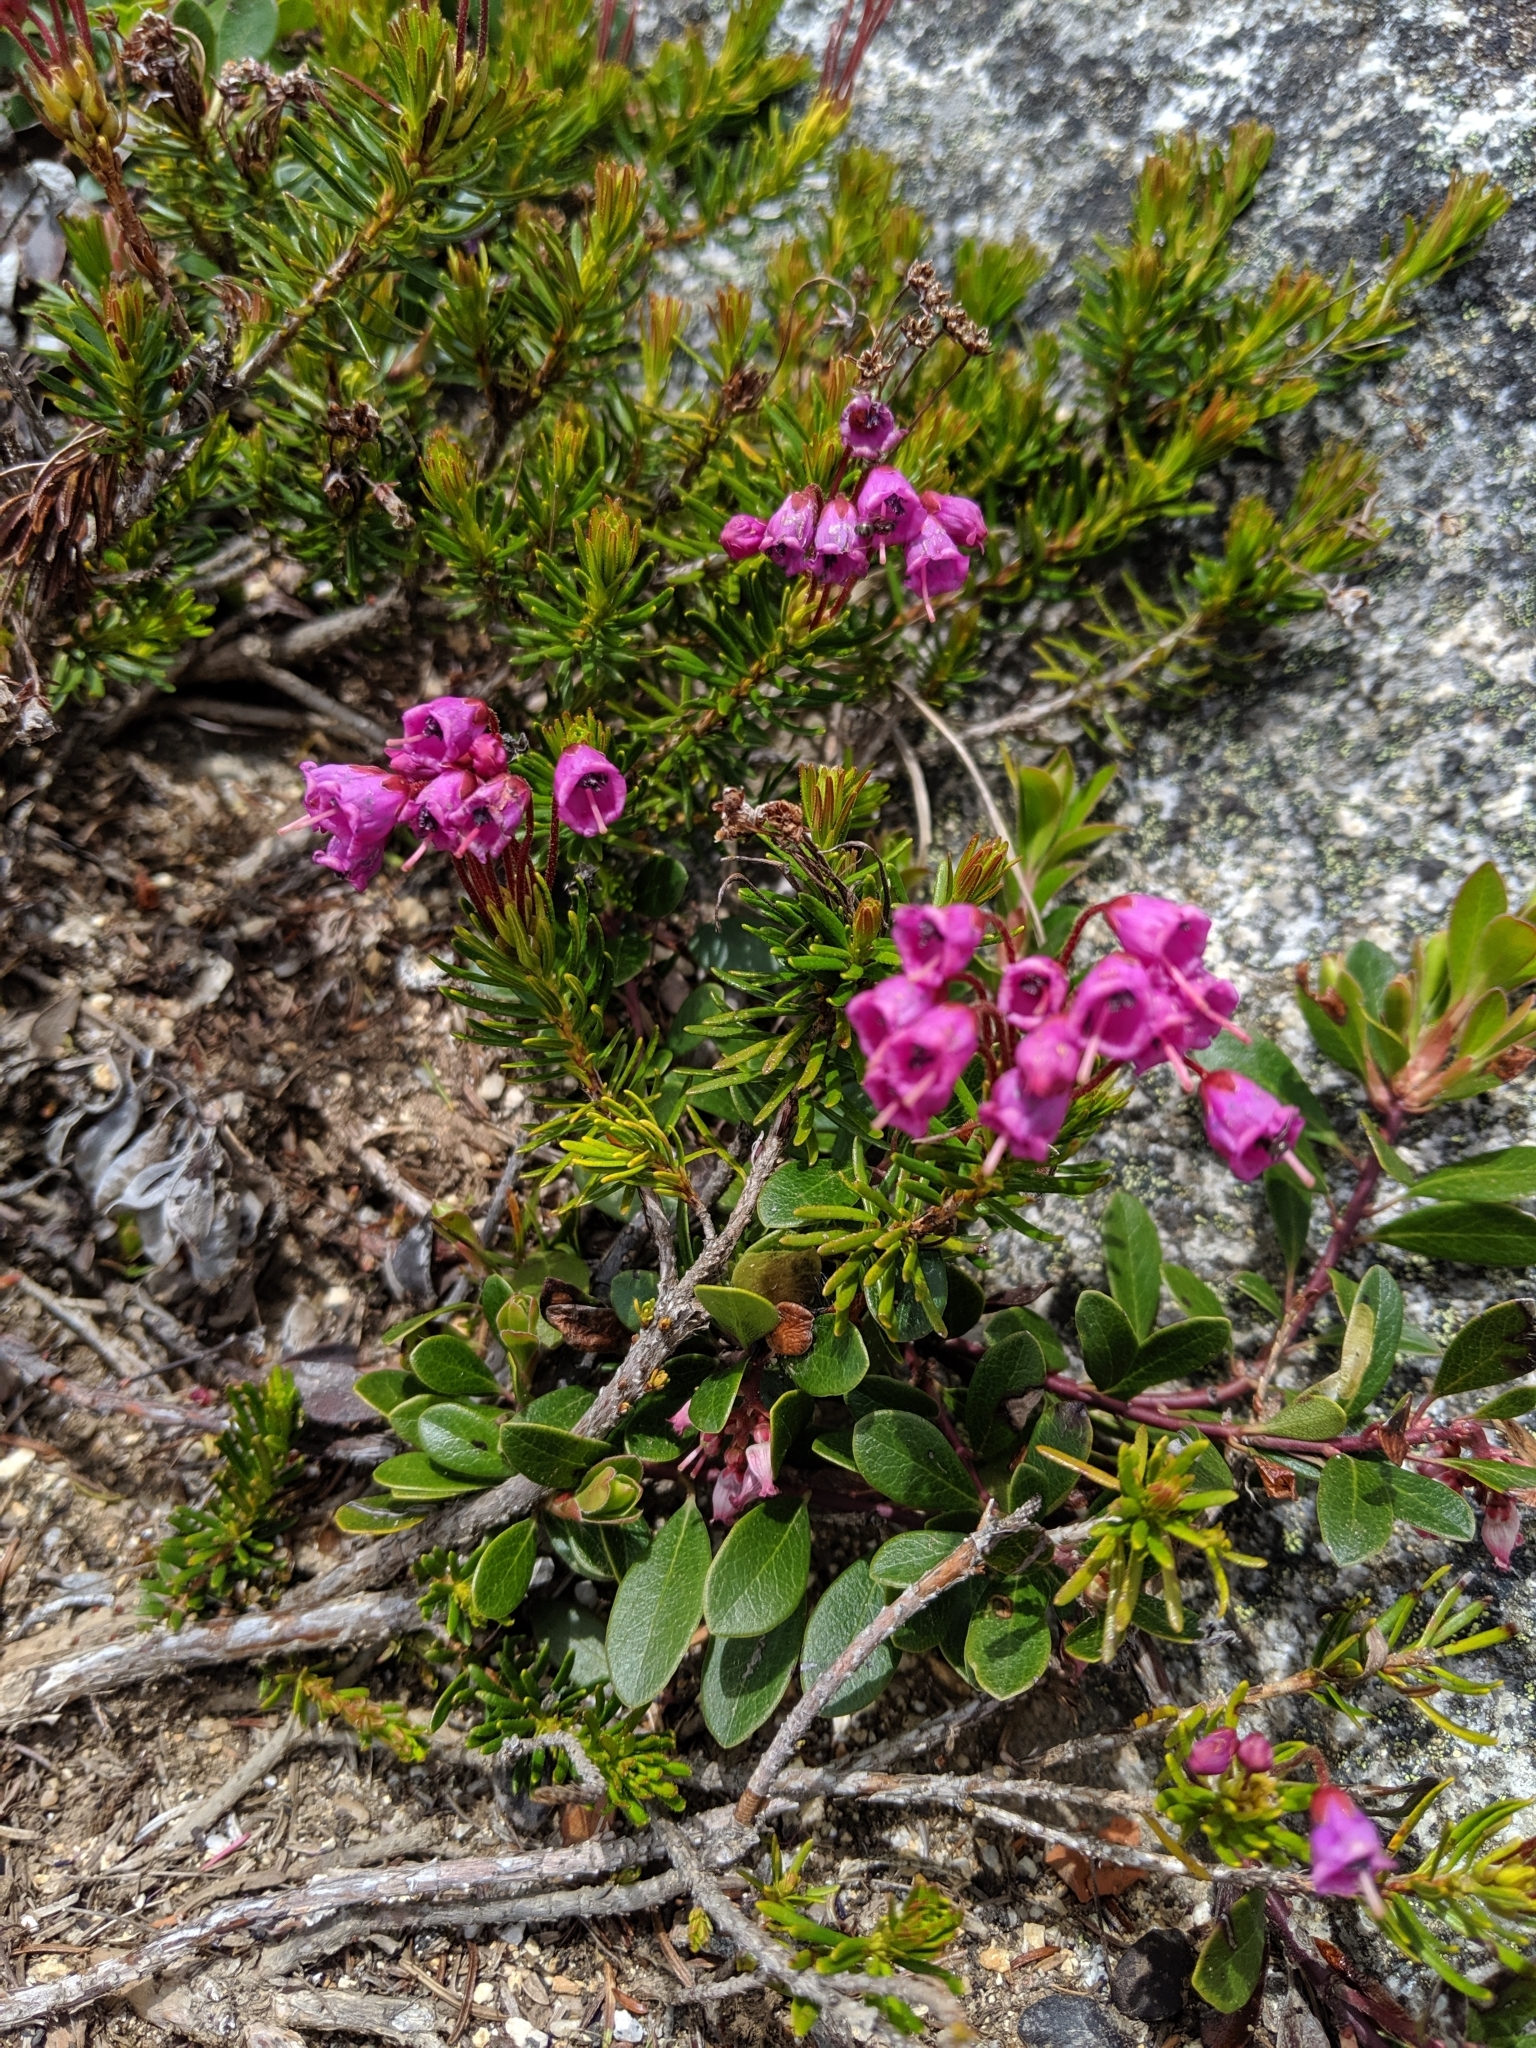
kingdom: Plantae
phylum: Tracheophyta
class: Magnoliopsida
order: Ericales
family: Ericaceae
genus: Phyllodoce
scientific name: Phyllodoce empetriformis
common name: Pink mountain heather
